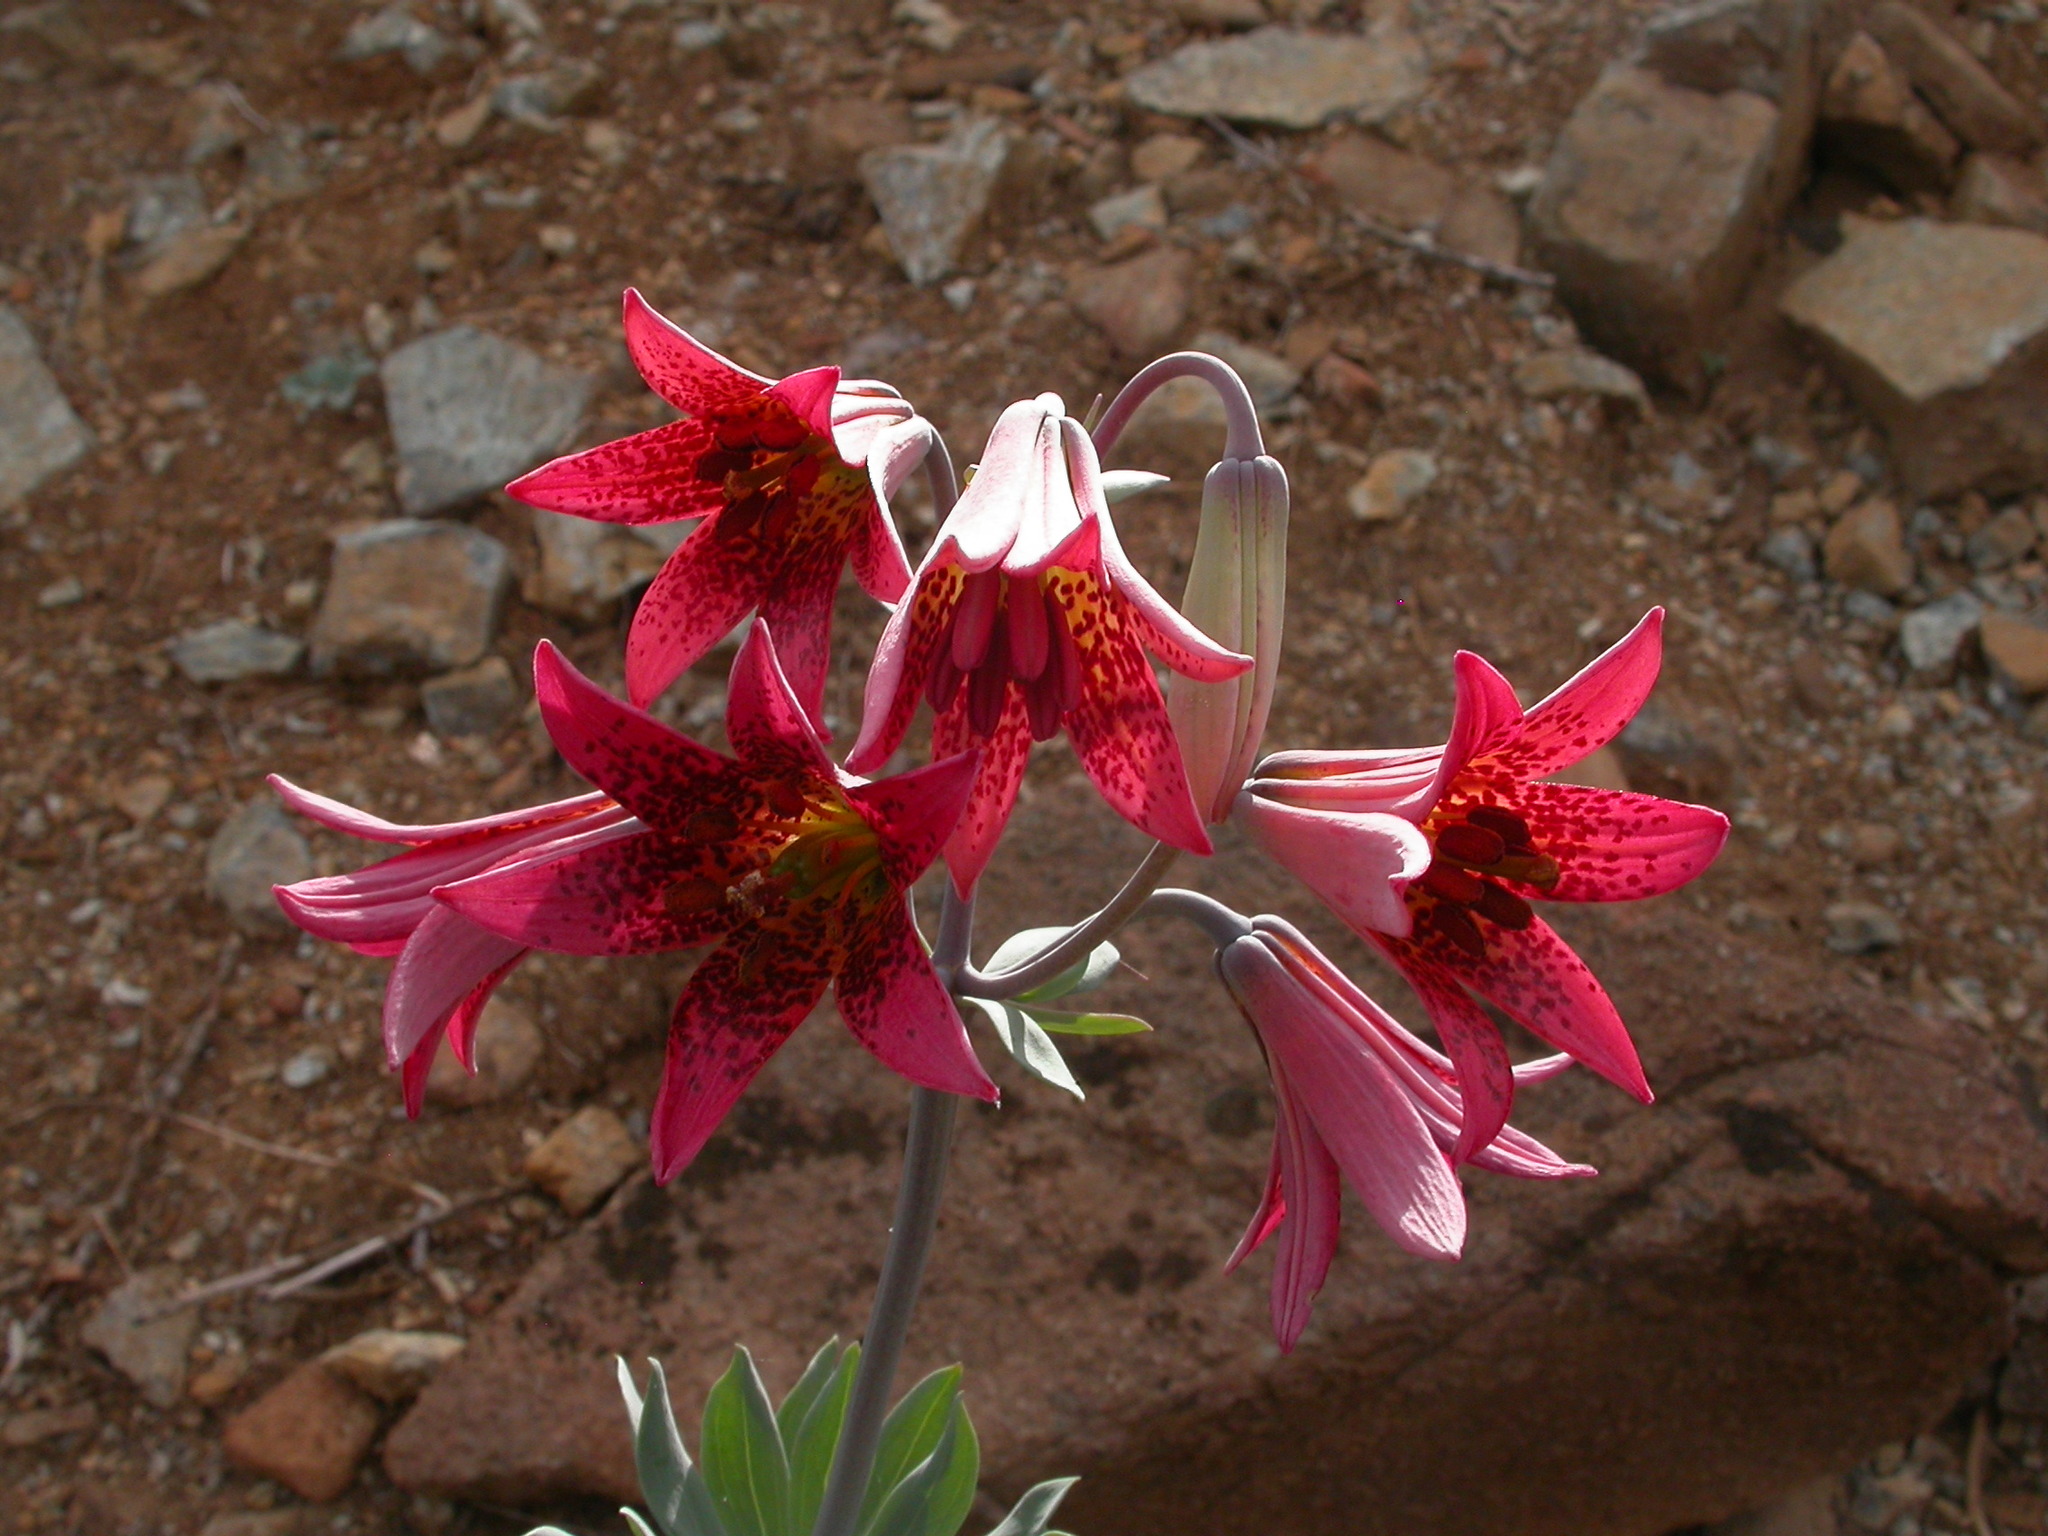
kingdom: Plantae
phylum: Tracheophyta
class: Liliopsida
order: Liliales
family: Liliaceae
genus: Lilium
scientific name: Lilium bolanderi
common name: Bolander's lily
